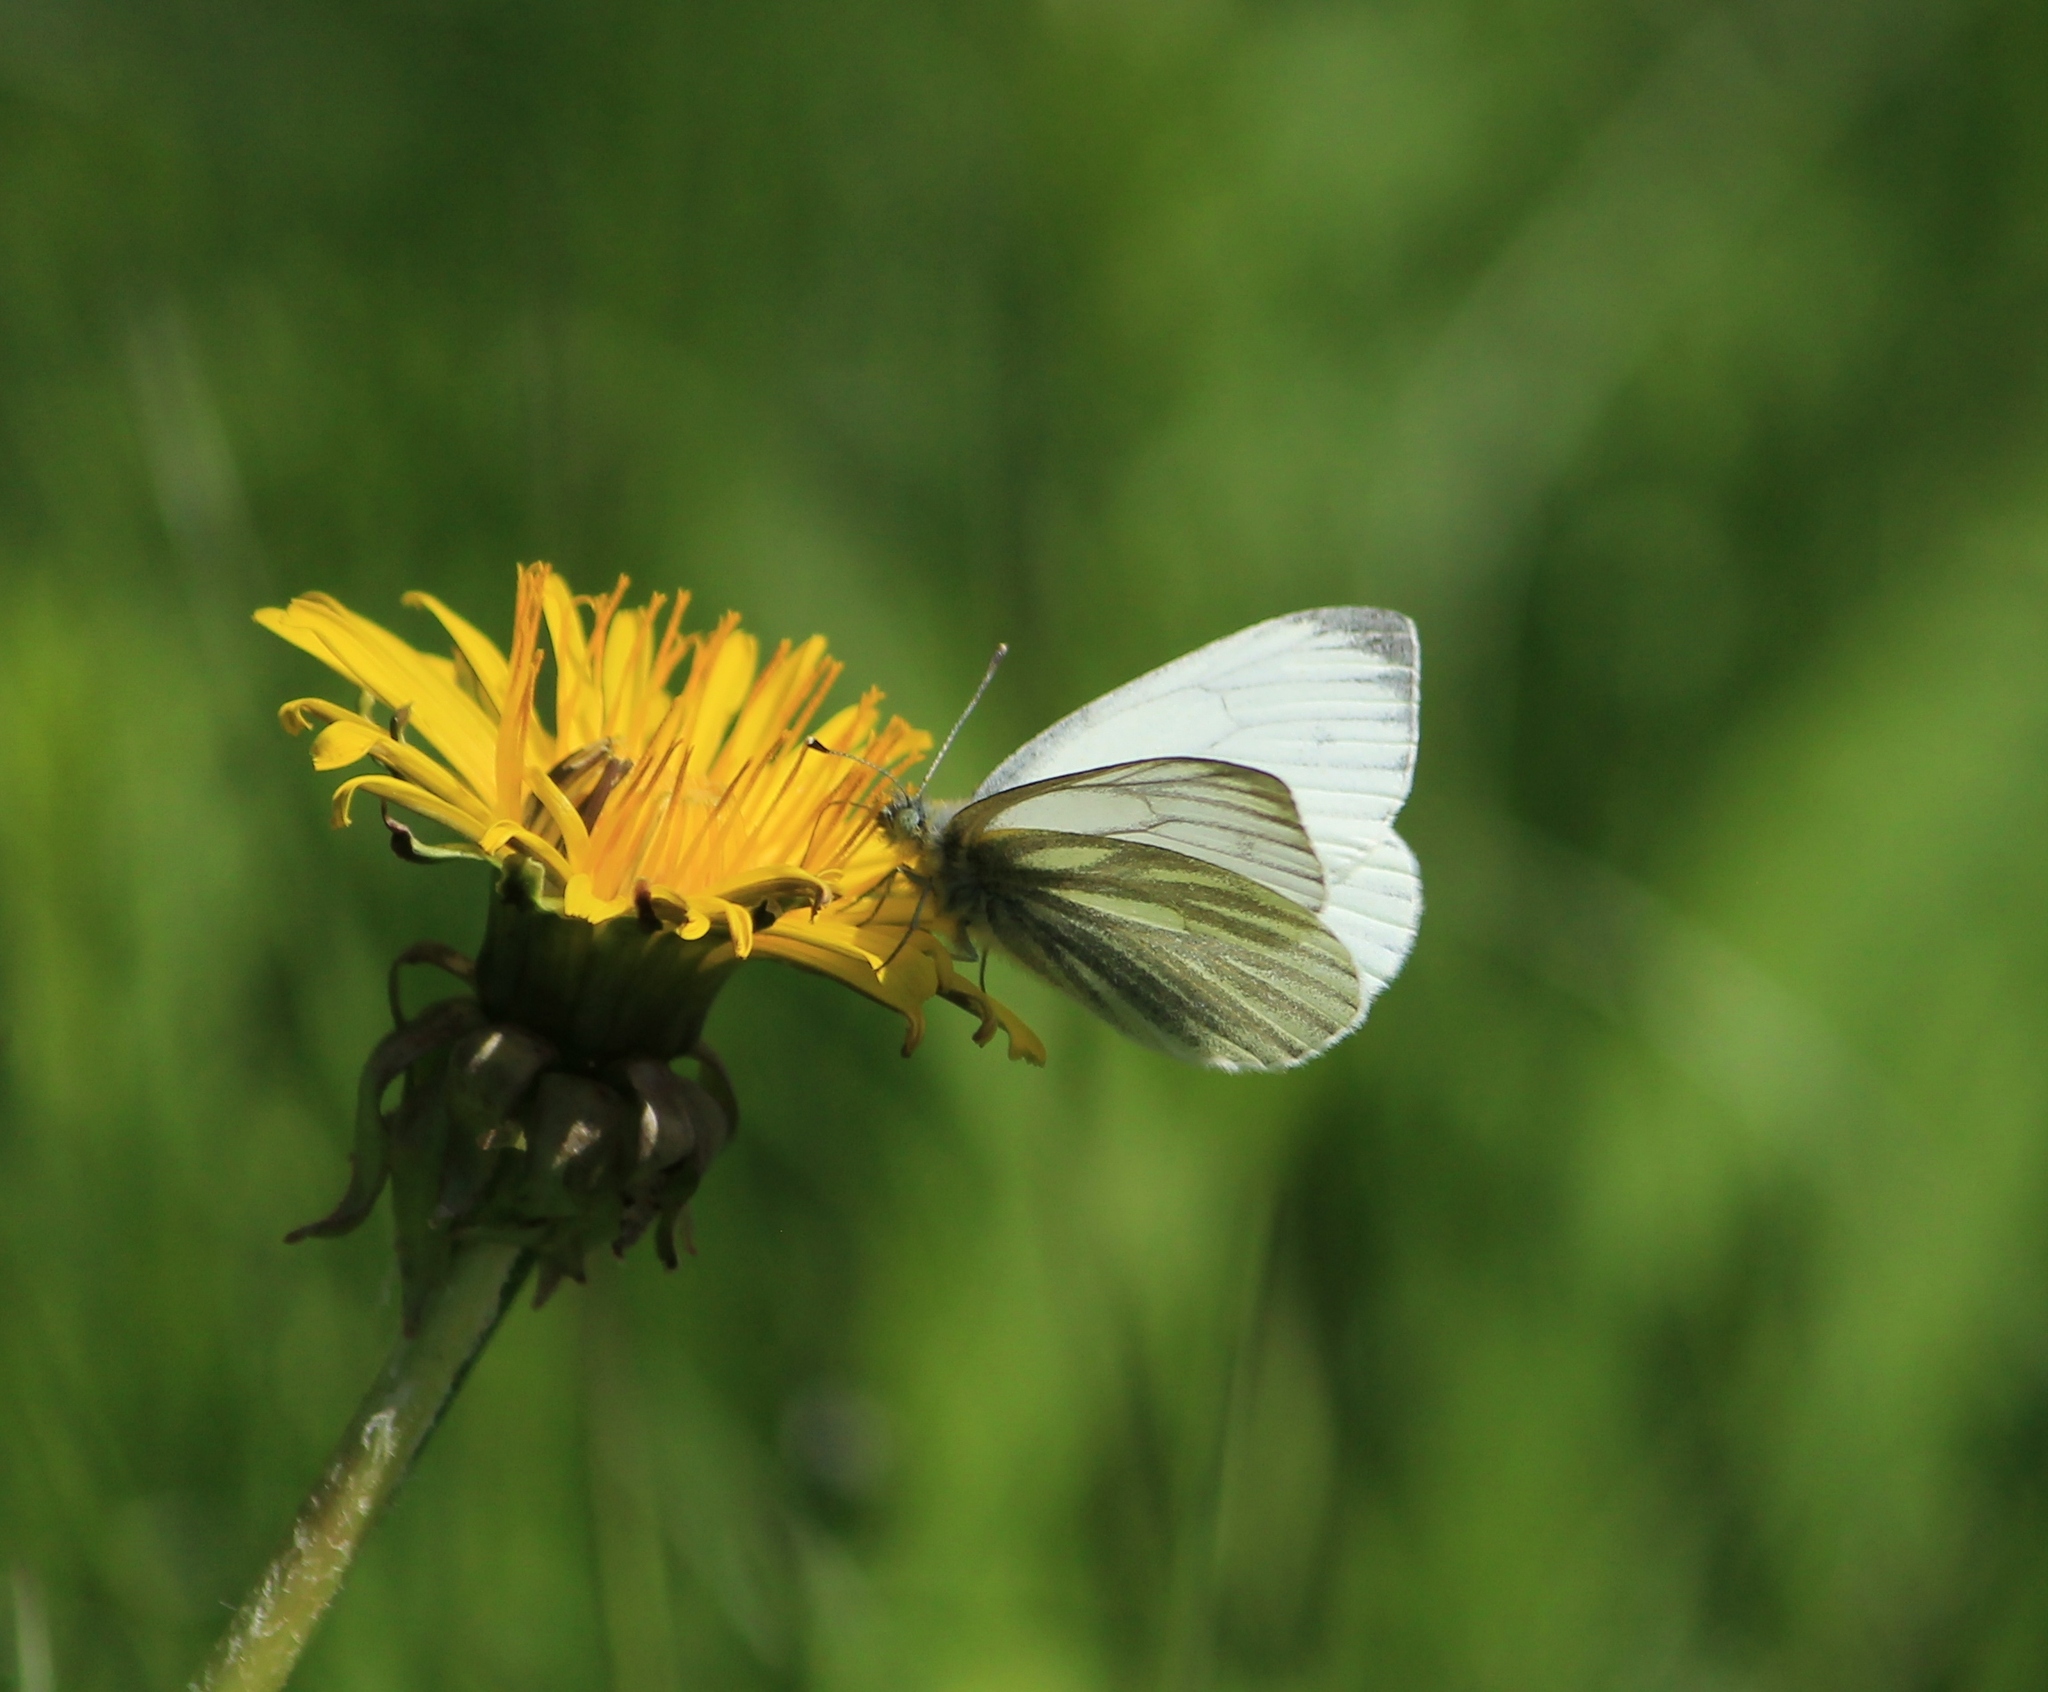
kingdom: Animalia
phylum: Arthropoda
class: Insecta
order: Lepidoptera
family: Pieridae
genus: Pieris
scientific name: Pieris napi
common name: Green-veined white
